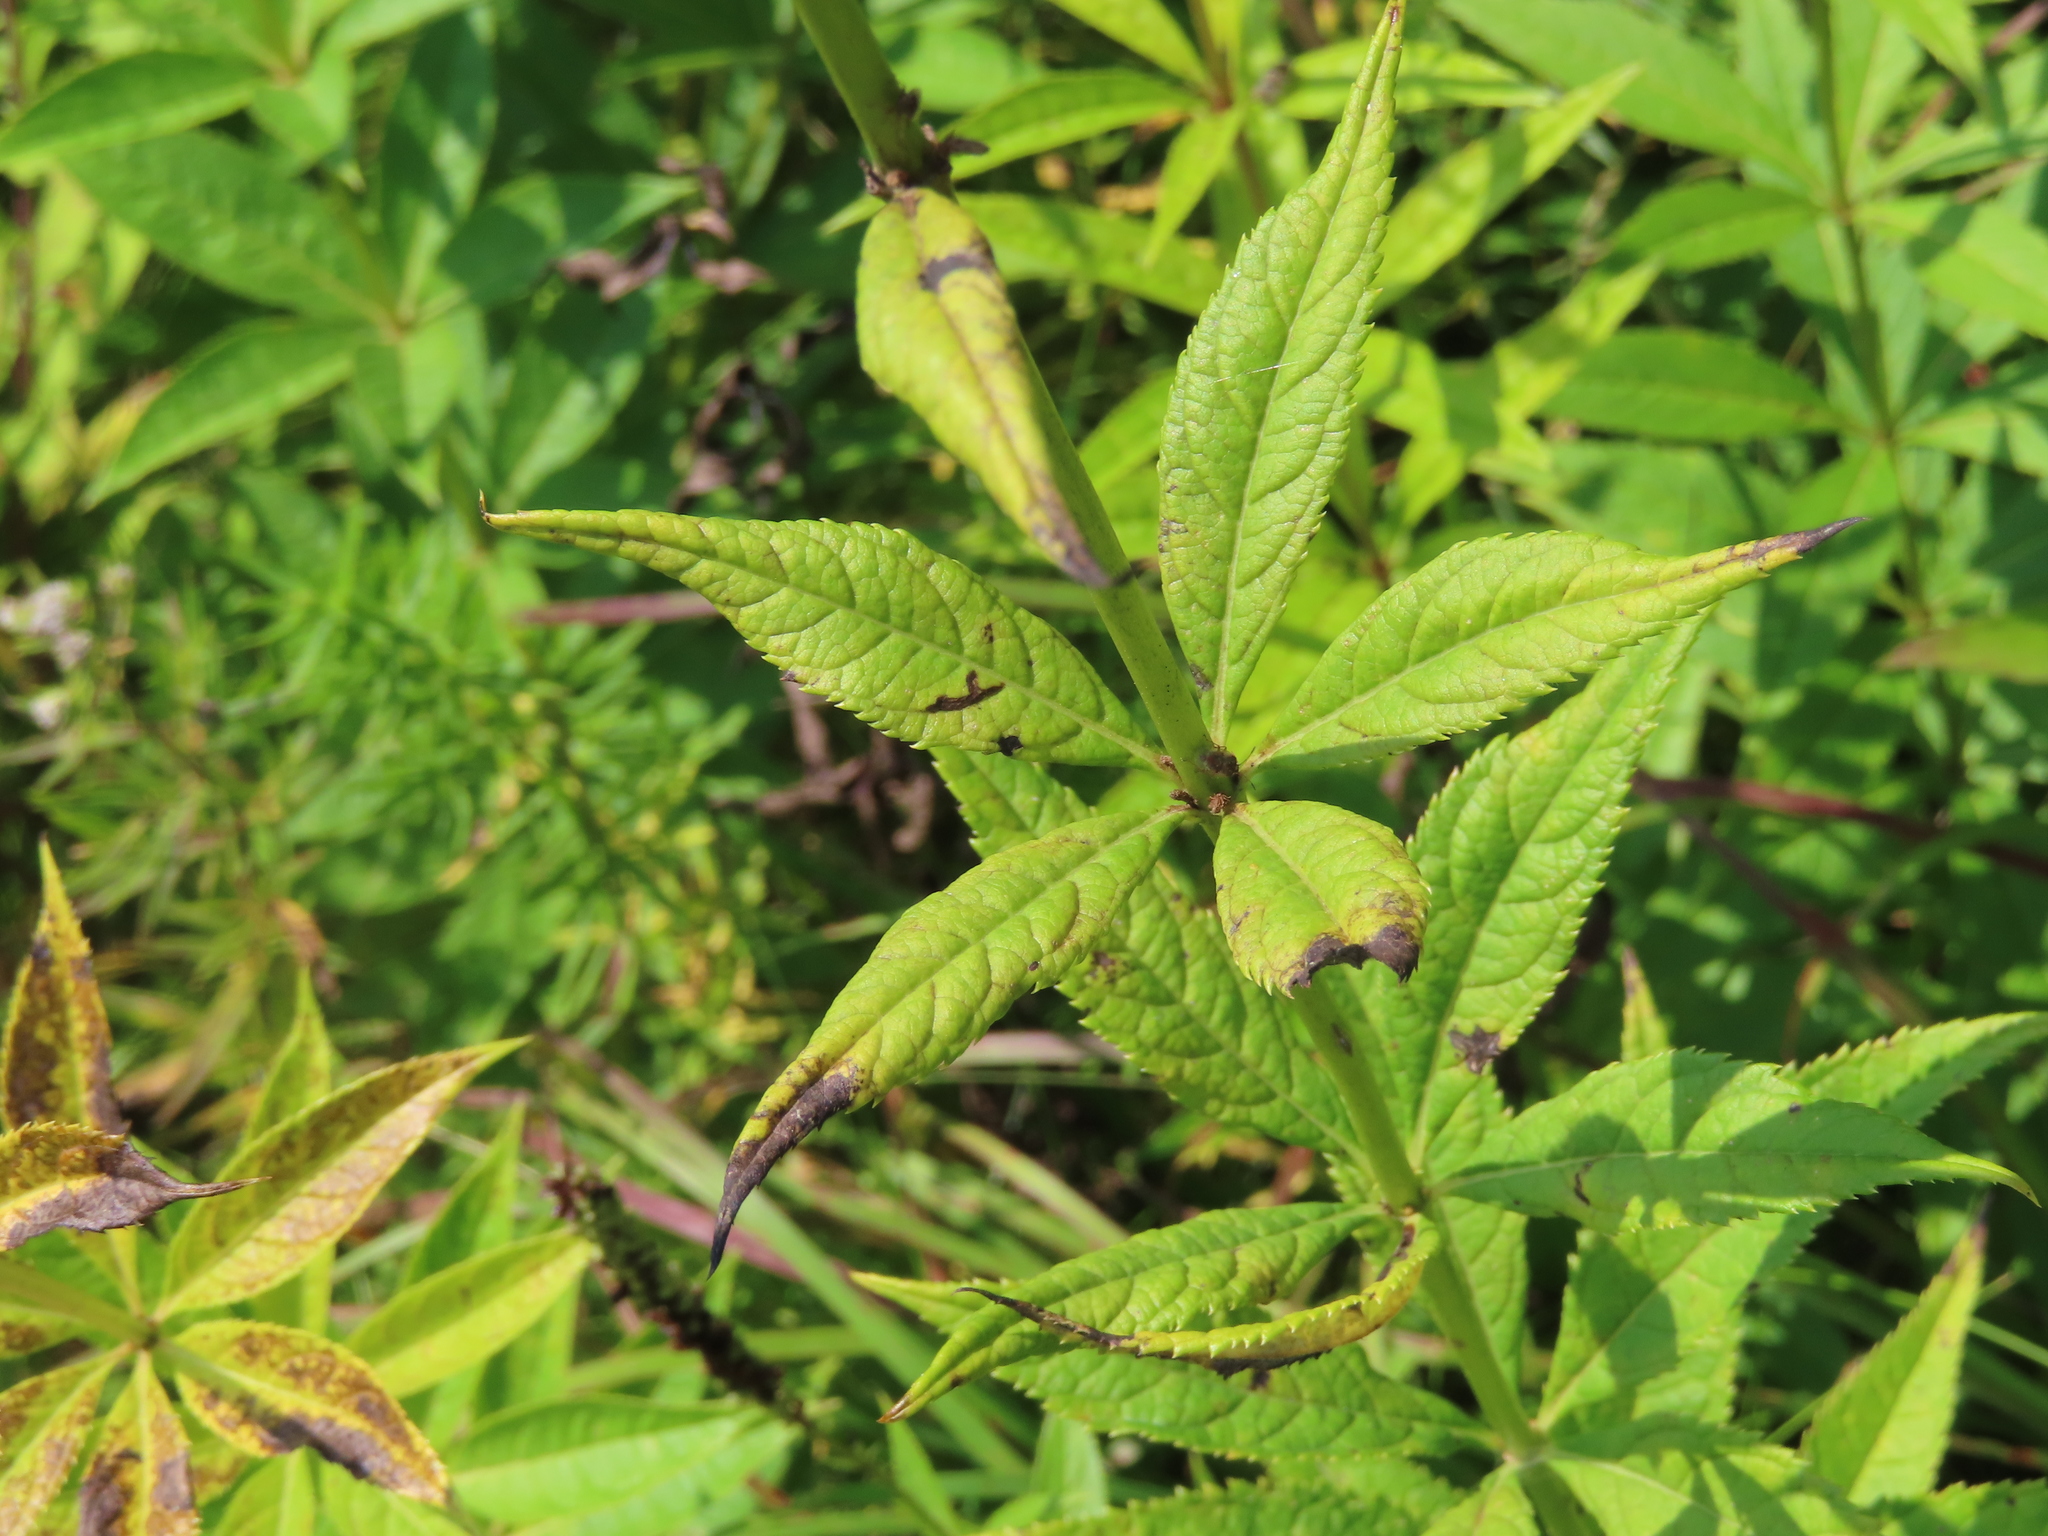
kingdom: Plantae
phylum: Tracheophyta
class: Magnoliopsida
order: Lamiales
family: Plantaginaceae
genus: Veronicastrum
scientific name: Veronicastrum virginicum
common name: Blackroot
